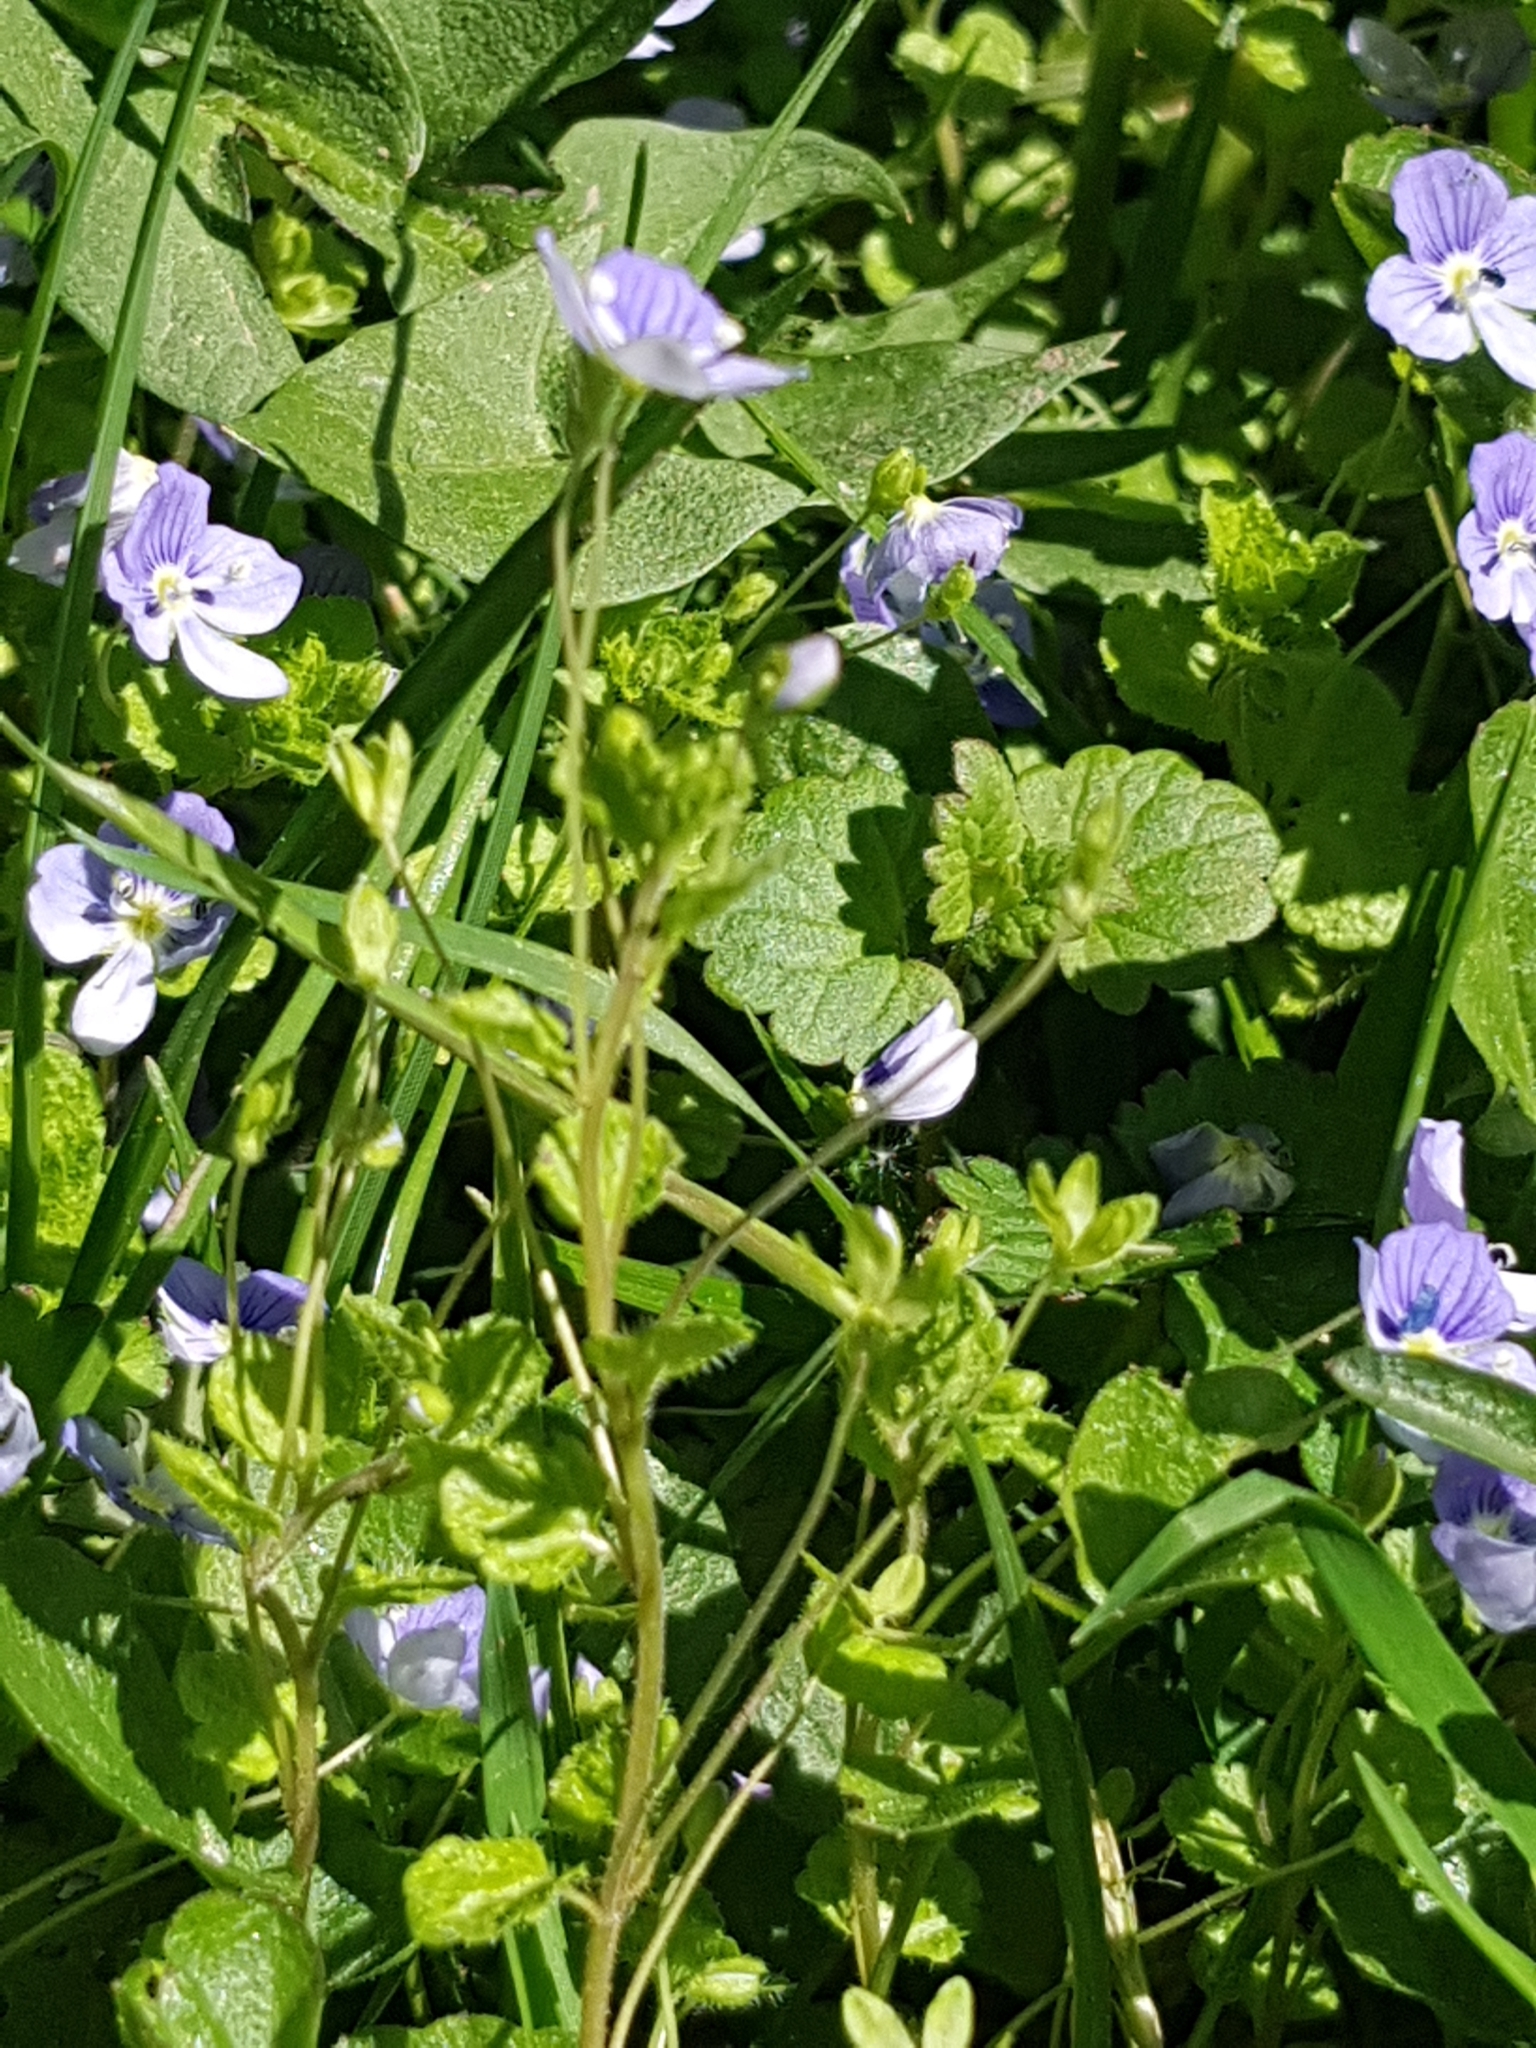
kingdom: Plantae
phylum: Tracheophyta
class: Magnoliopsida
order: Lamiales
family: Plantaginaceae
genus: Veronica
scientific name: Veronica filiformis
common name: Slender speedwell
